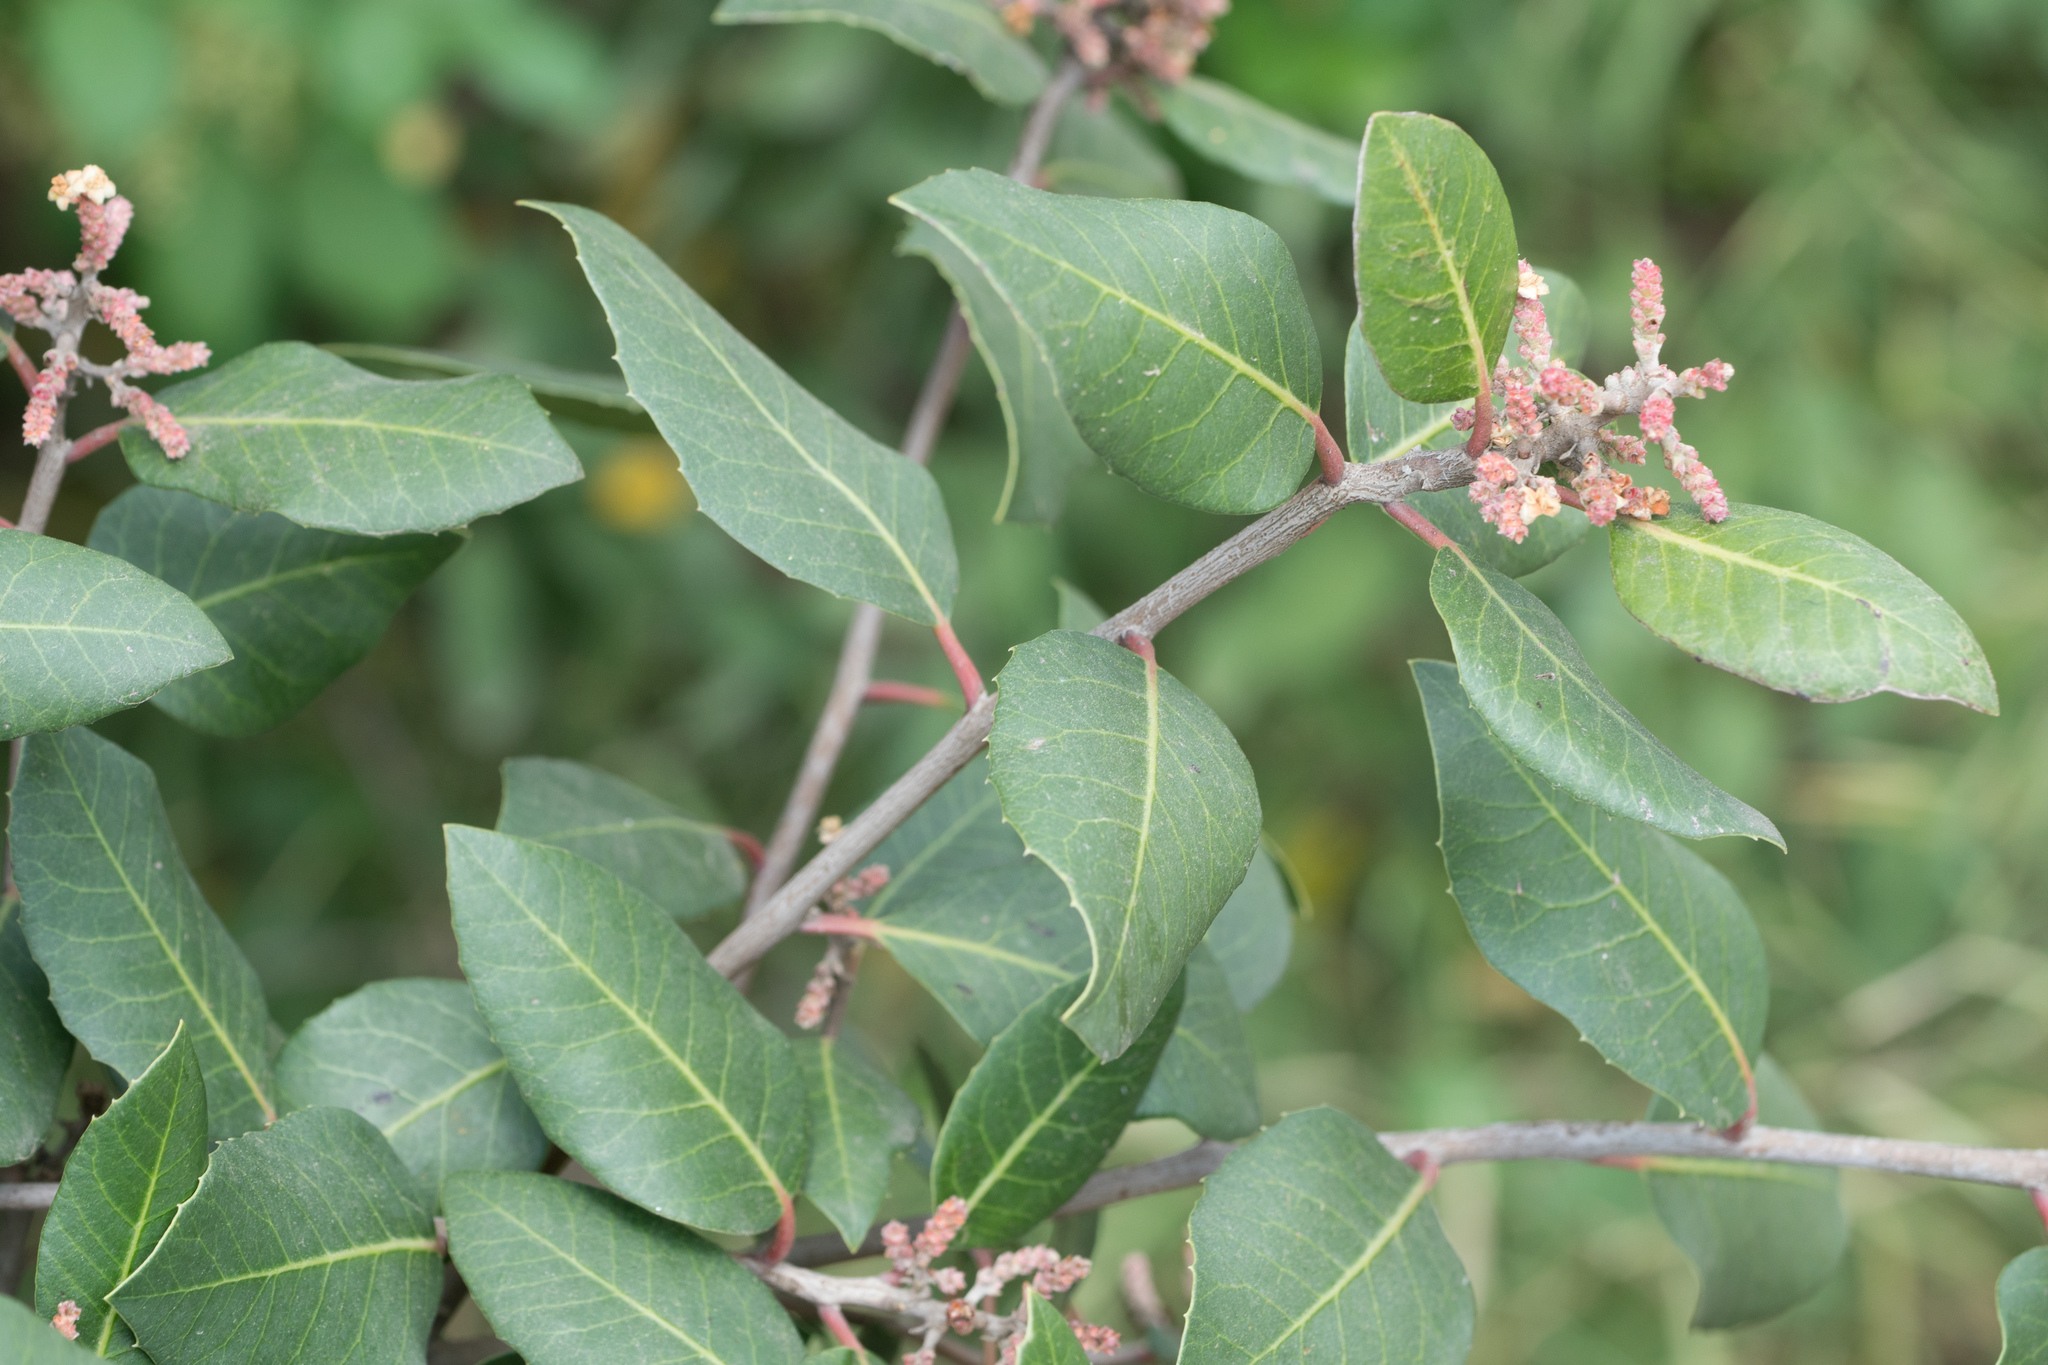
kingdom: Plantae
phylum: Tracheophyta
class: Magnoliopsida
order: Sapindales
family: Anacardiaceae
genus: Rhus
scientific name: Rhus
